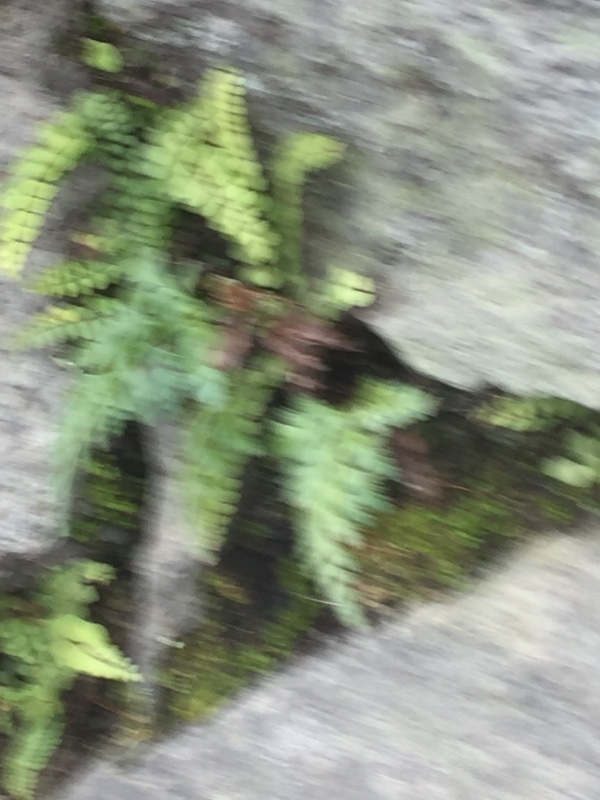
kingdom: Plantae
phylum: Tracheophyta
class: Polypodiopsida
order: Polypodiales
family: Aspleniaceae
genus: Asplenium
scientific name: Asplenium trichomanes
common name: Maidenhair spleenwort
